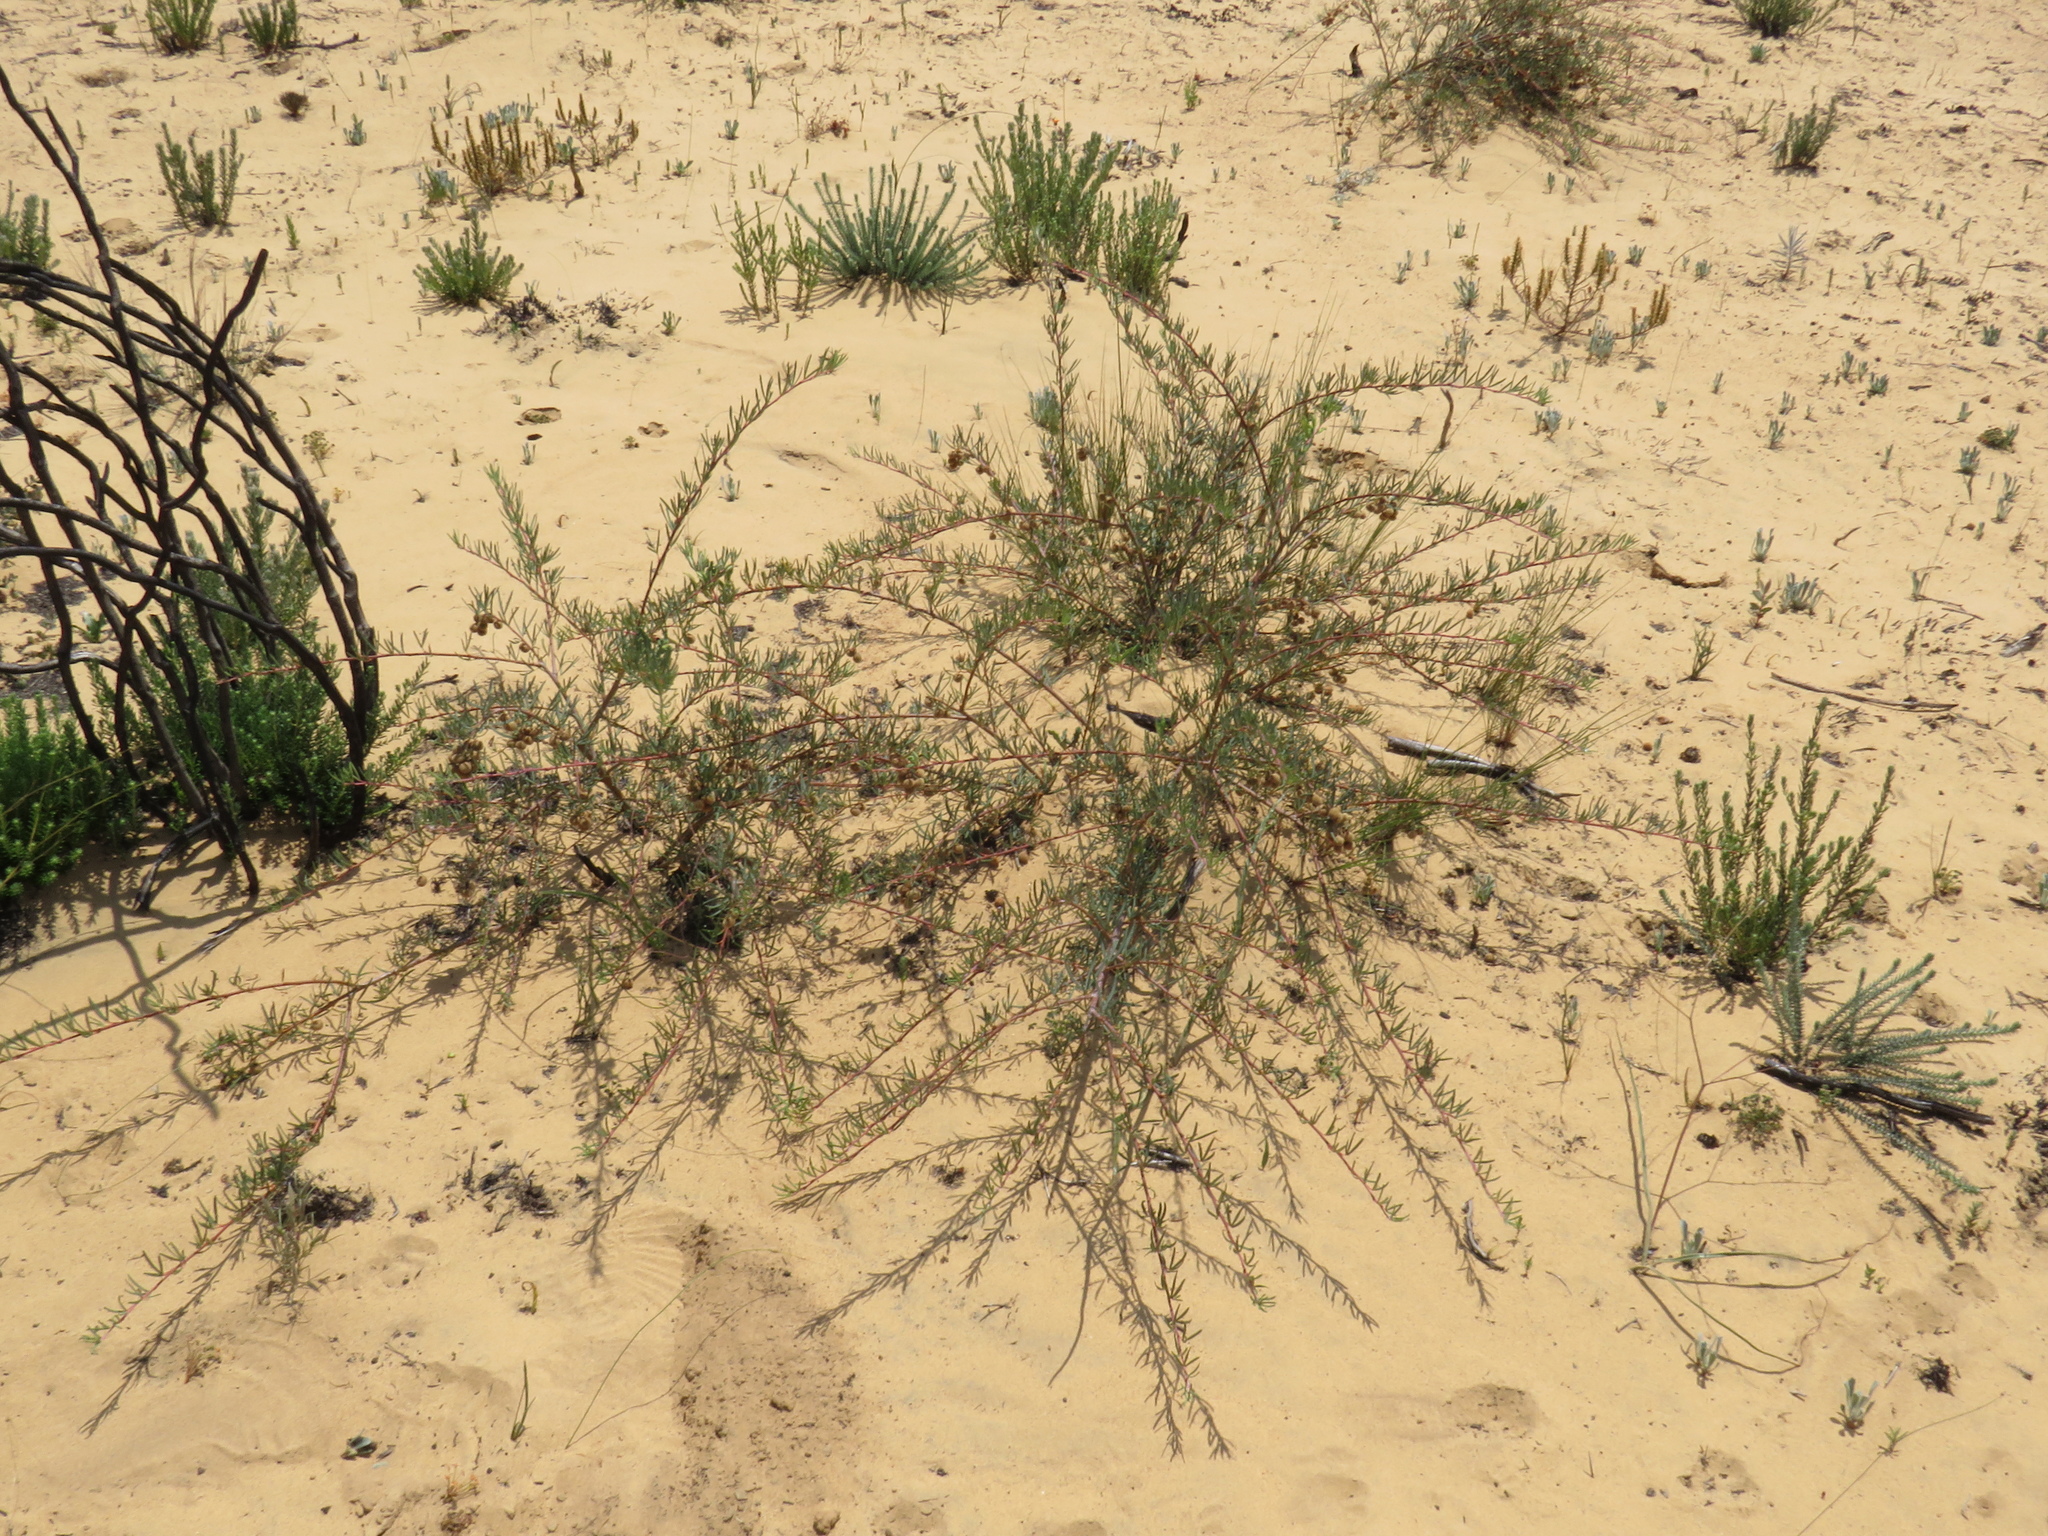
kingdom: Plantae
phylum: Tracheophyta
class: Magnoliopsida
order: Sapindales
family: Anacardiaceae
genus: Searsia
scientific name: Searsia rosmarinifolia
